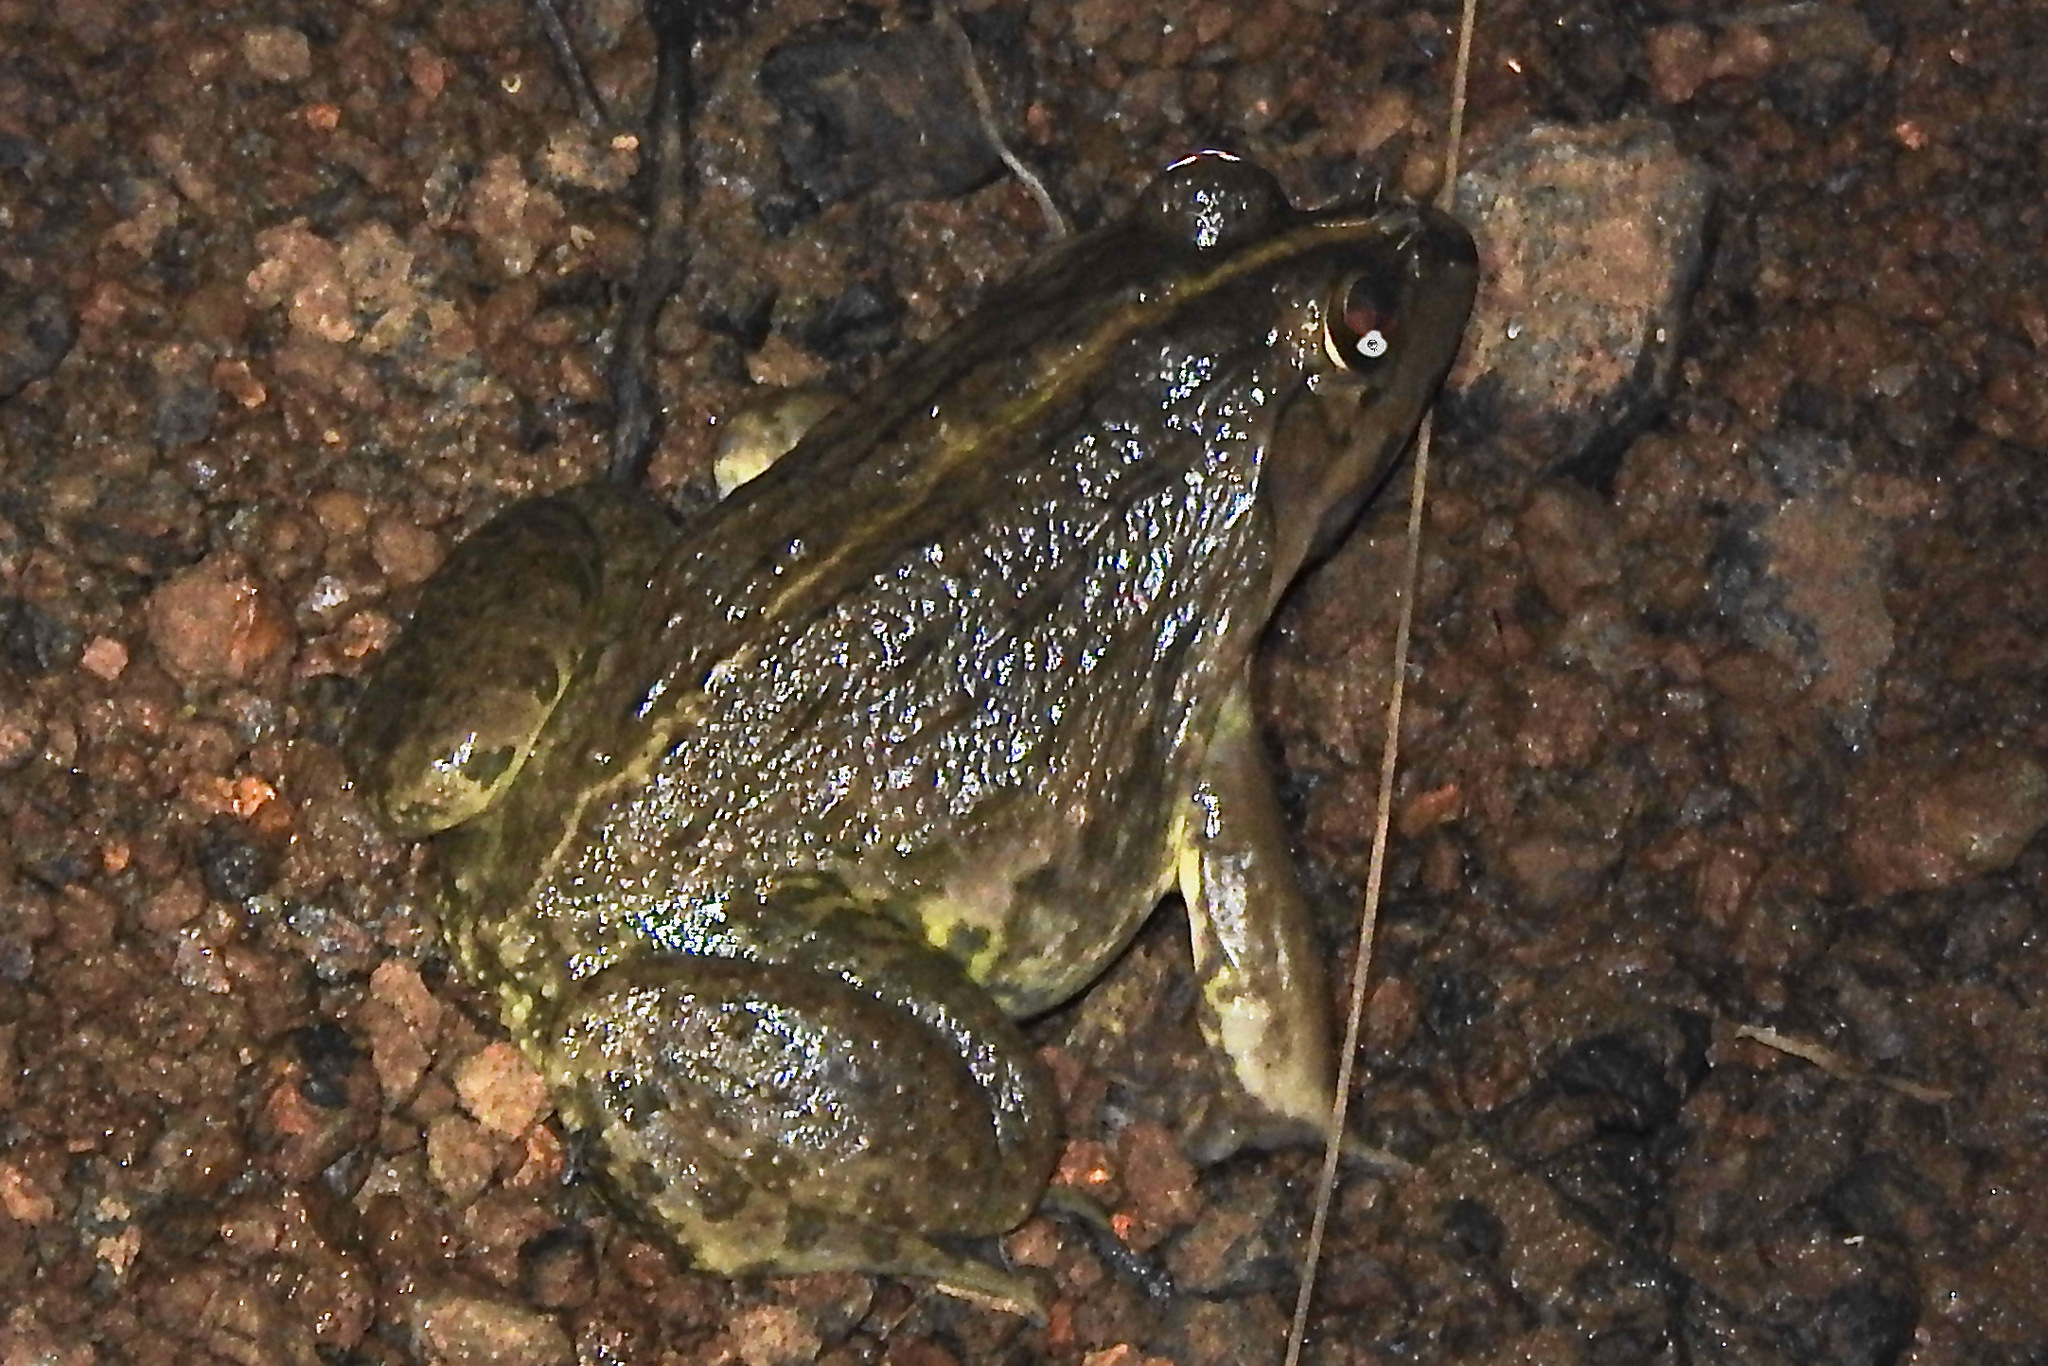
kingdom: Animalia
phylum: Chordata
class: Amphibia
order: Anura
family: Dicroglossidae
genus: Hoplobatrachus
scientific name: Hoplobatrachus tigerinus
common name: Indian bullfrog
